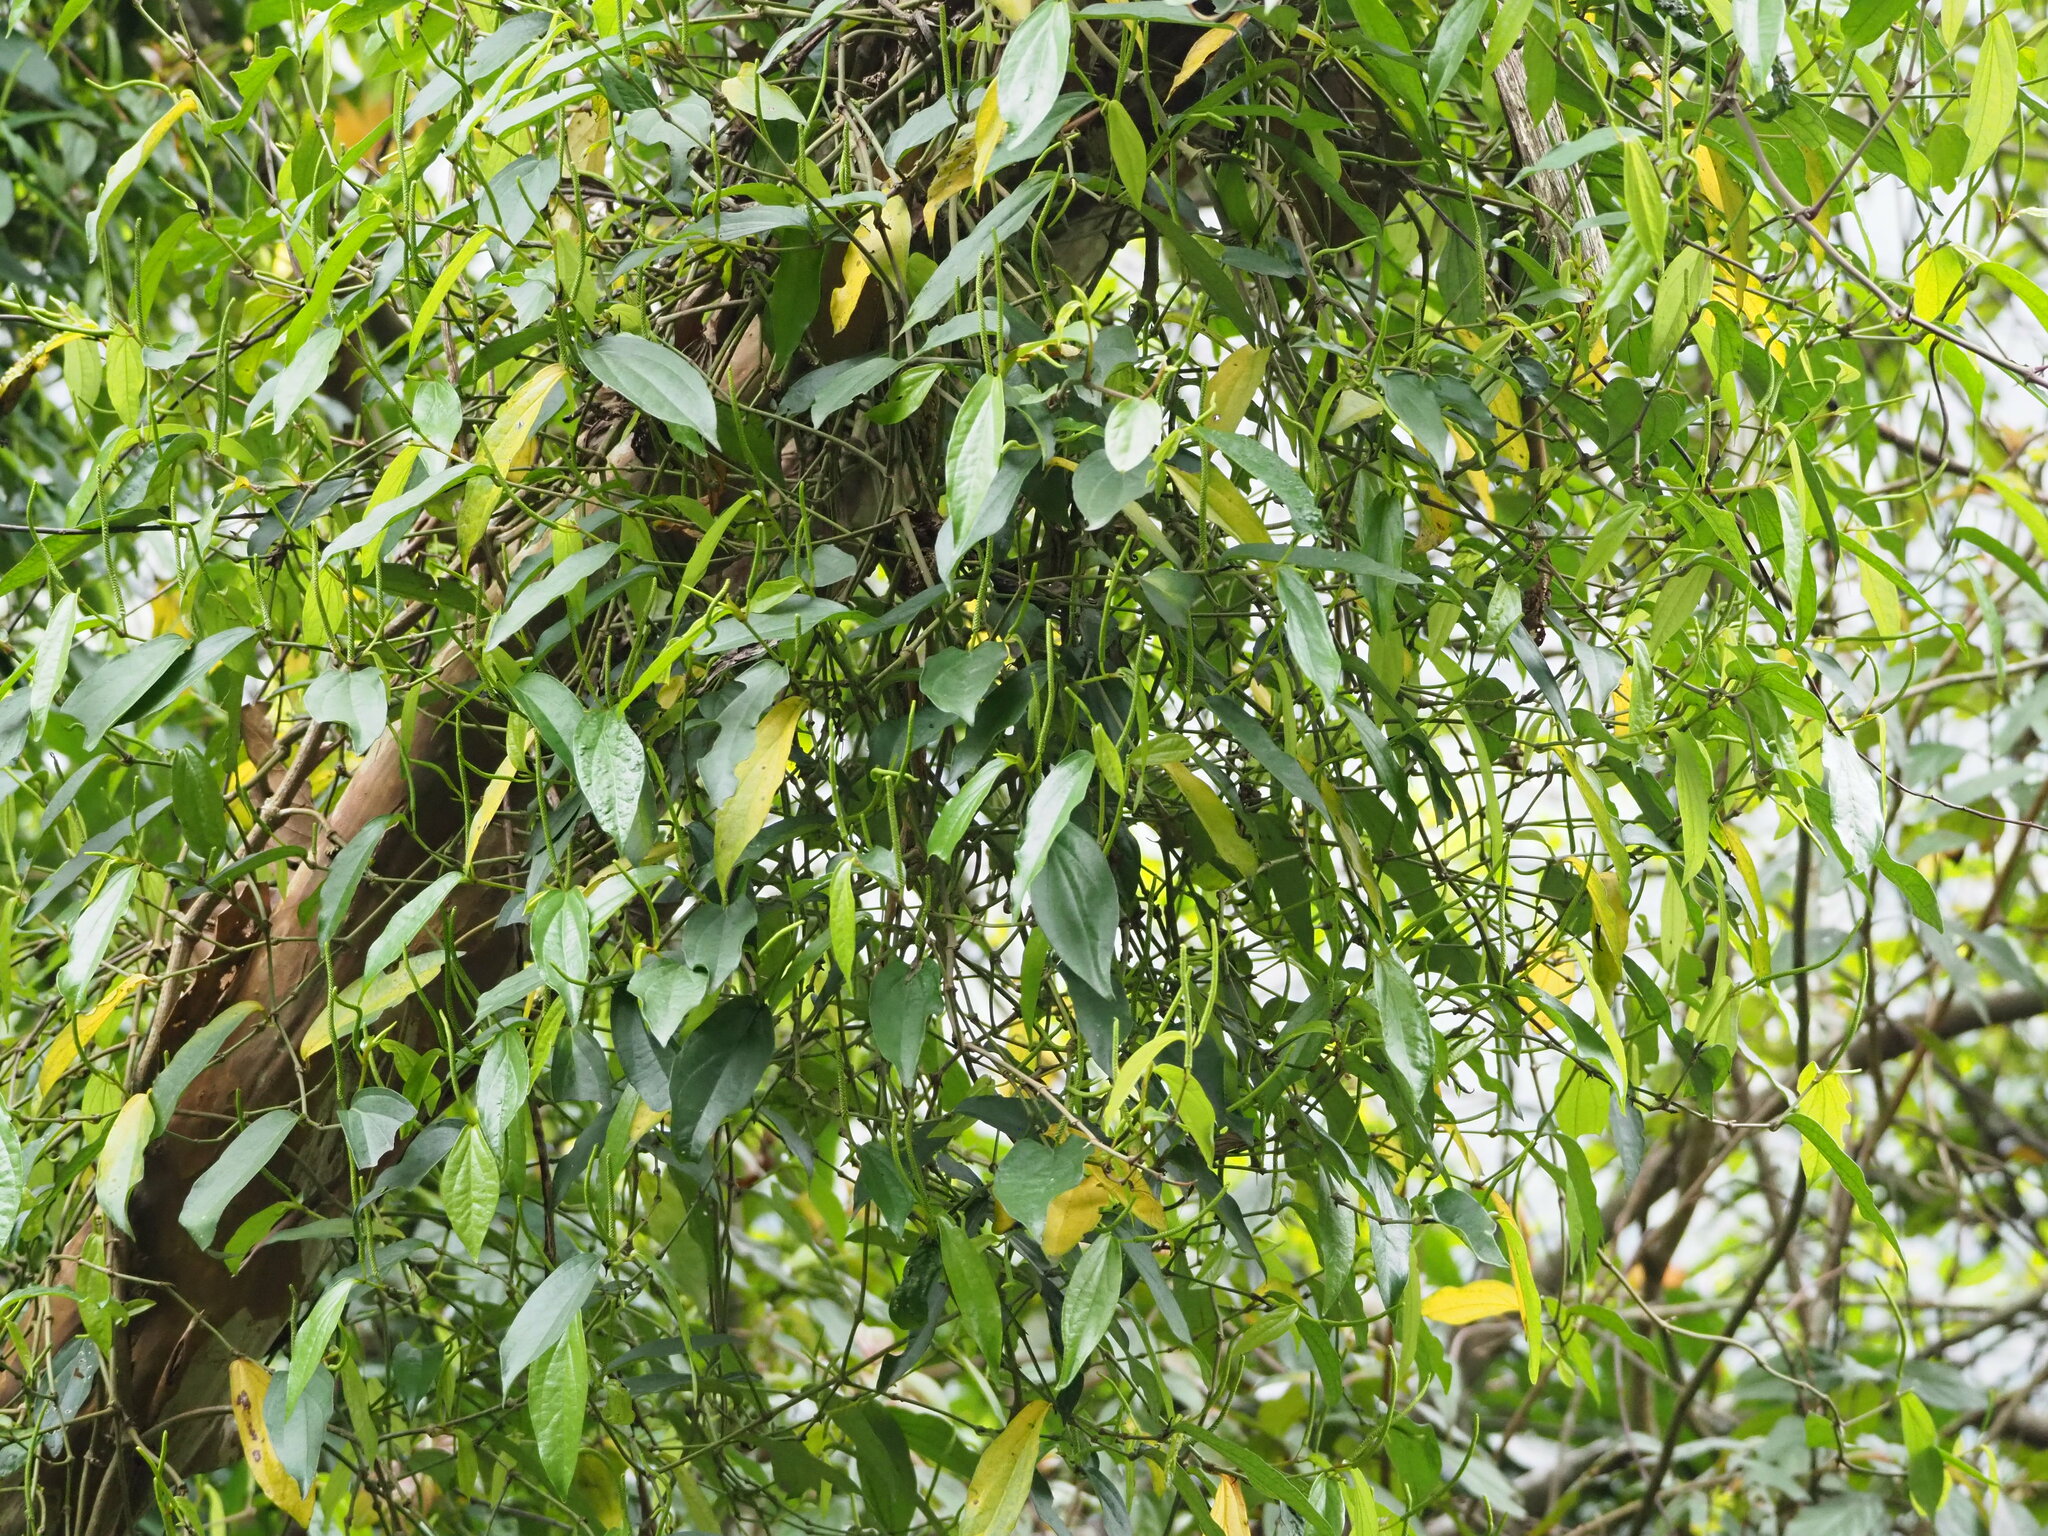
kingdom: Plantae
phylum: Tracheophyta
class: Magnoliopsida
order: Piperales
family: Piperaceae
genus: Piper
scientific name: Piper kadsura
